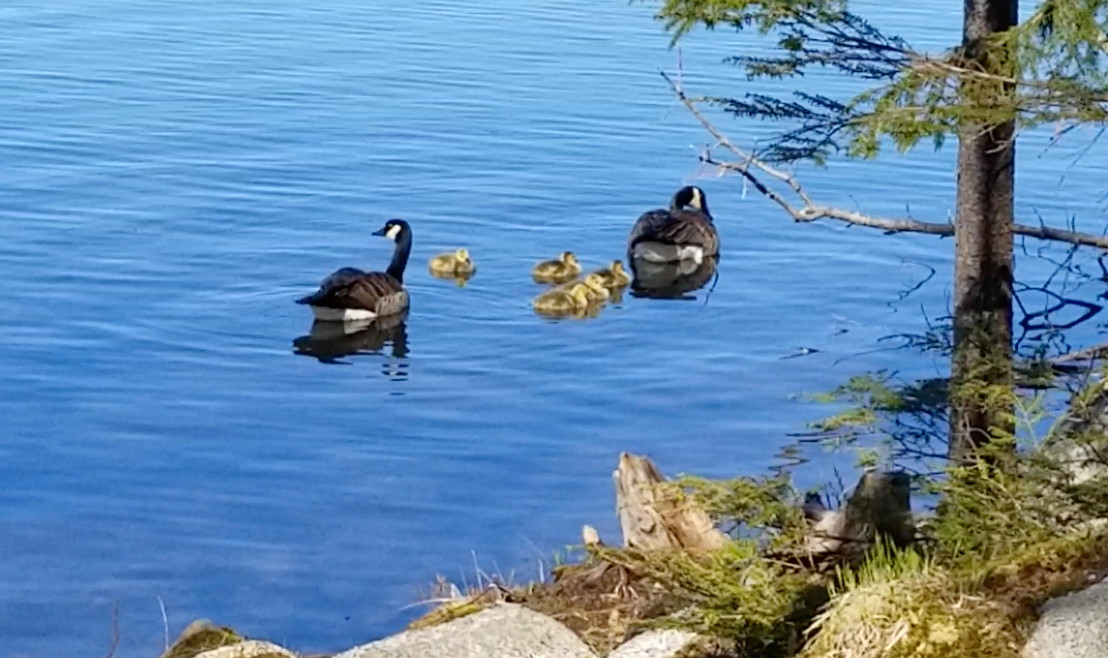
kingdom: Animalia
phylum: Chordata
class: Aves
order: Anseriformes
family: Anatidae
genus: Branta
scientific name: Branta canadensis
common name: Canada goose
